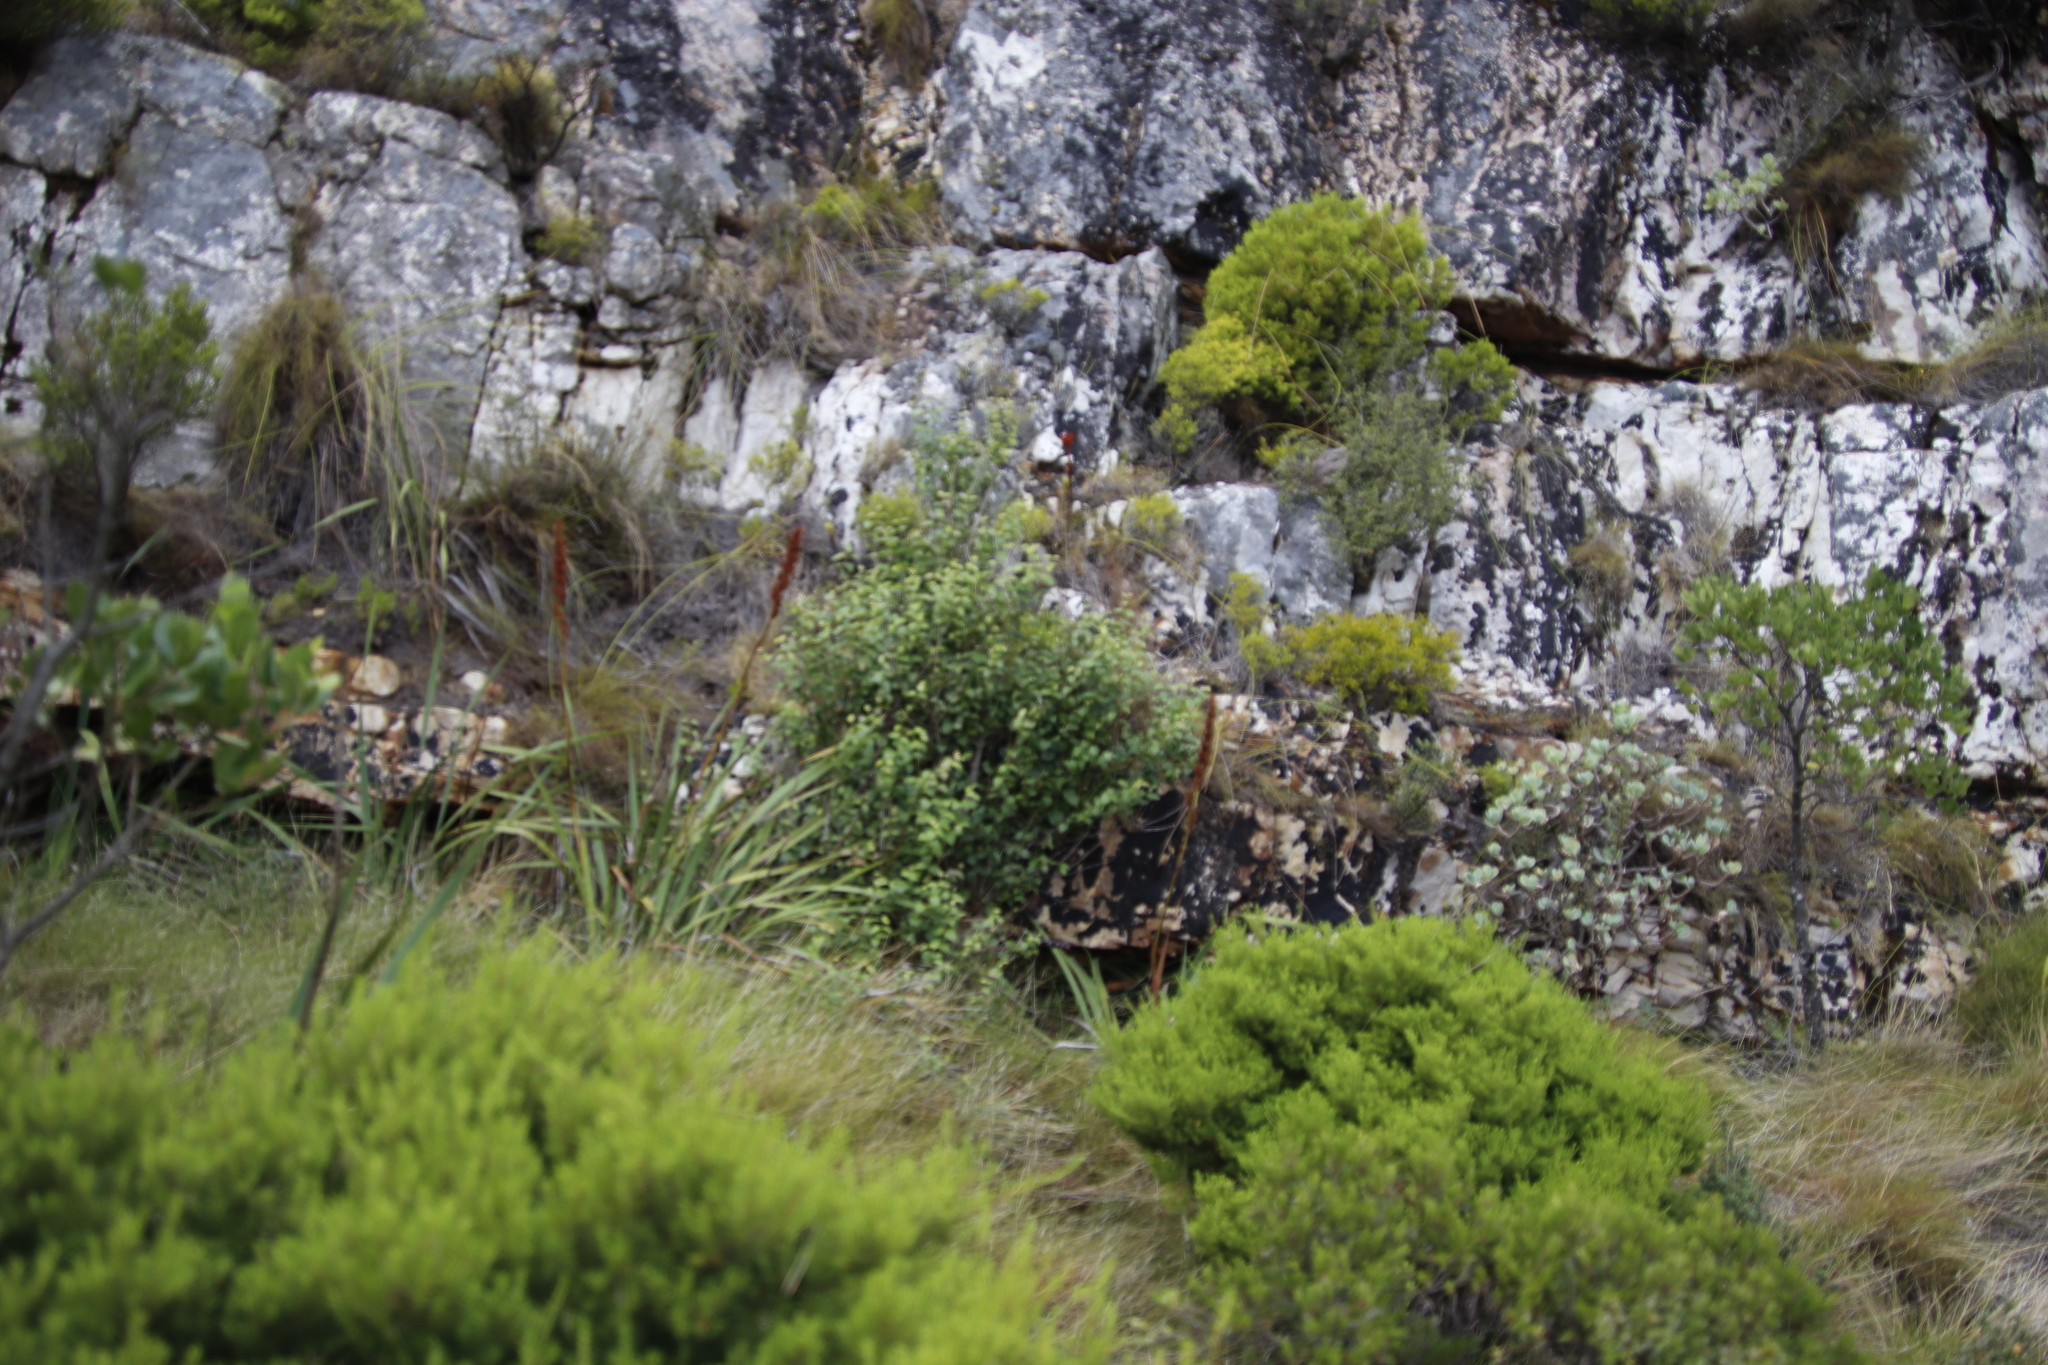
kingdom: Plantae
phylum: Tracheophyta
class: Magnoliopsida
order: Lamiales
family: Stilbaceae
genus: Halleria
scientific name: Halleria lucida
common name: Tree fuschia
